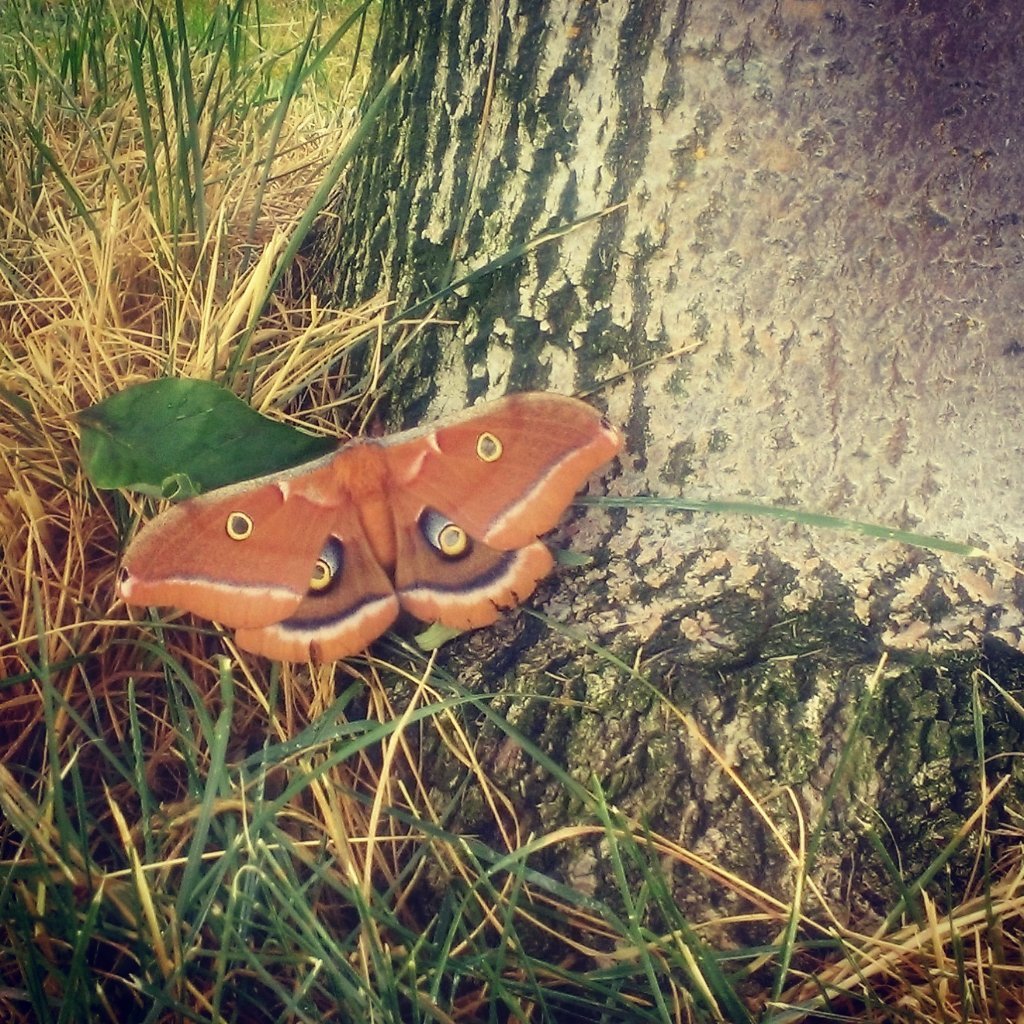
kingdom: Animalia
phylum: Arthropoda
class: Insecta
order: Lepidoptera
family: Saturniidae
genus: Antheraea
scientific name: Antheraea polyphemus
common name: Polyphemus moth
